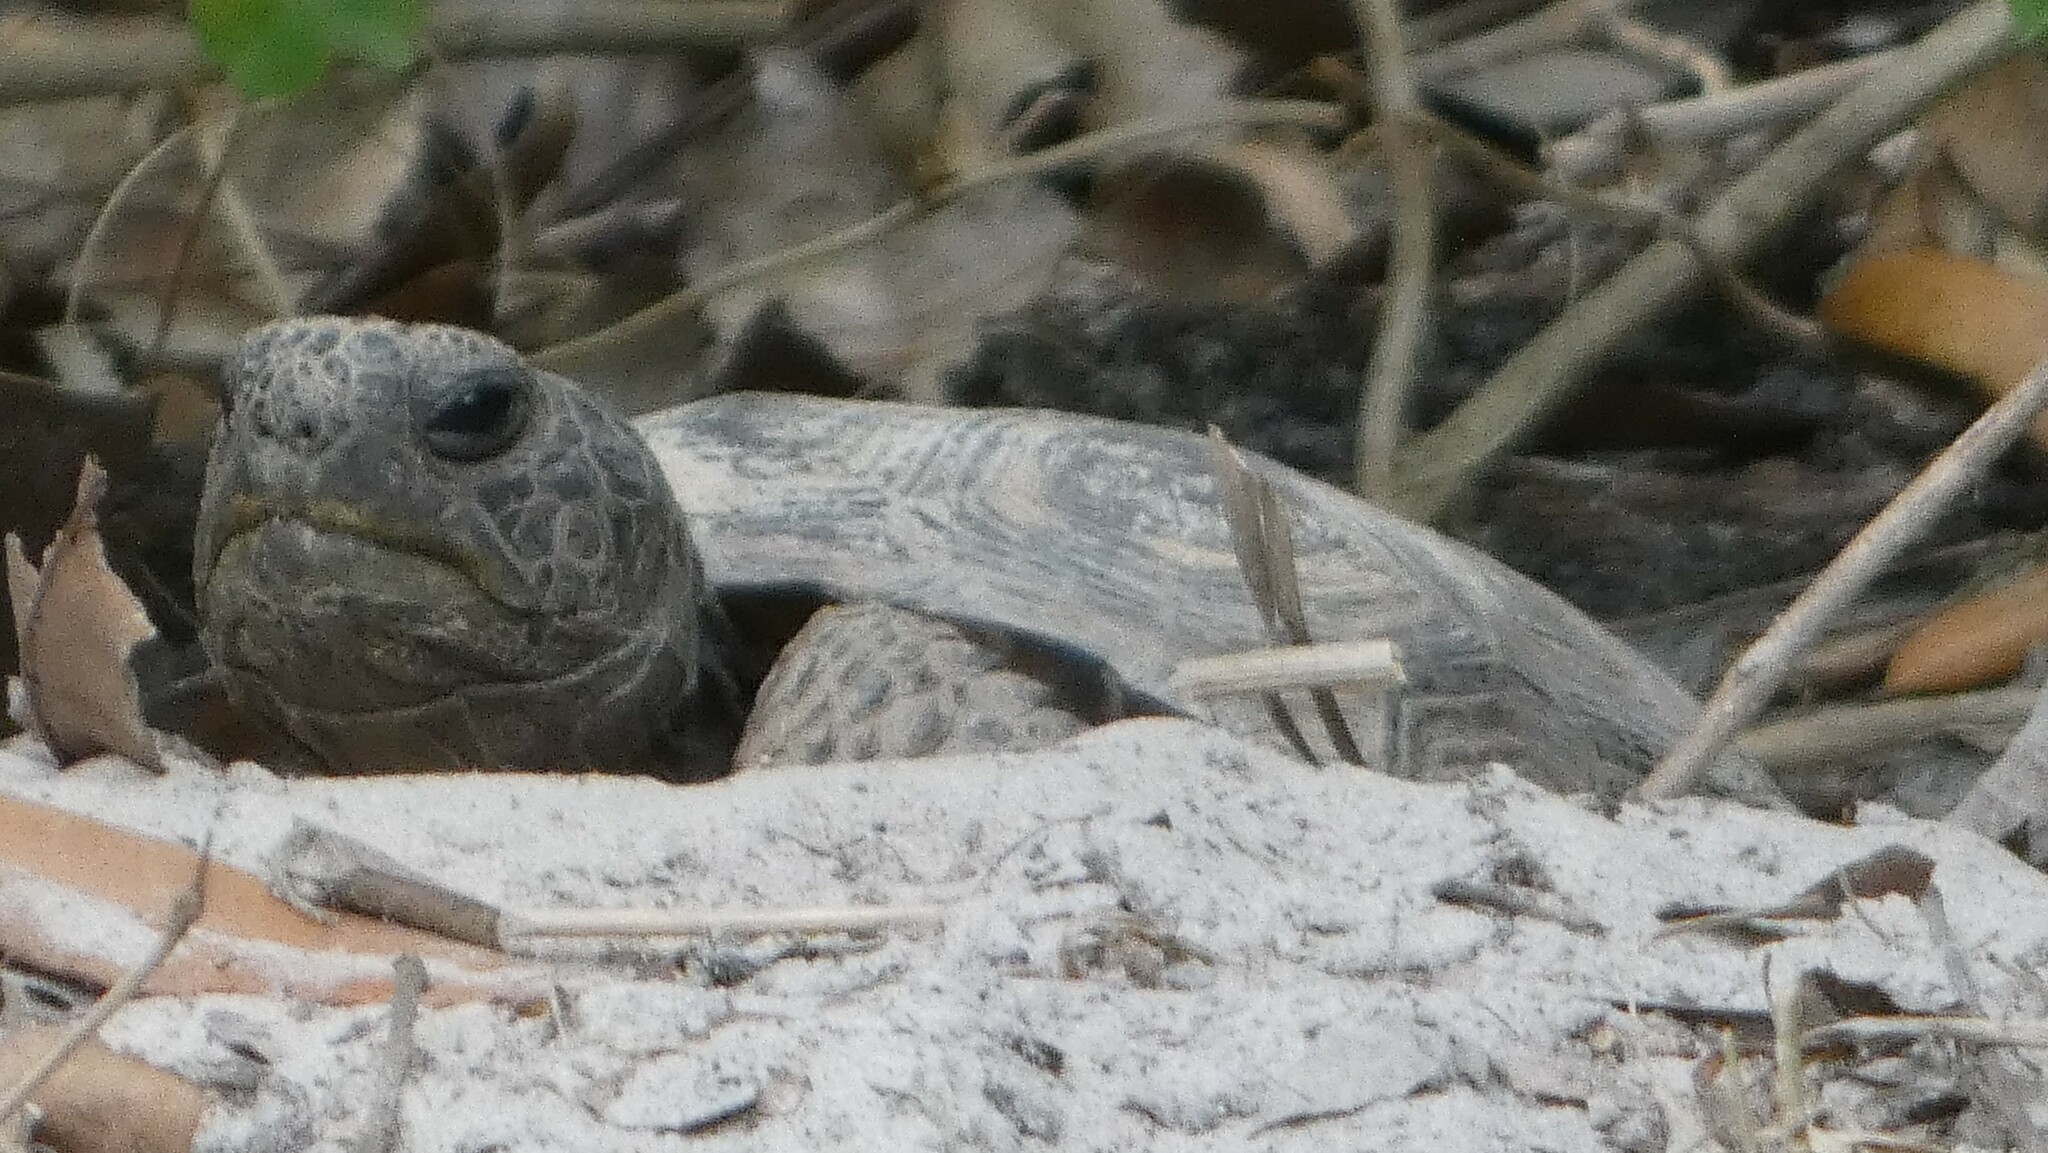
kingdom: Animalia
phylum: Chordata
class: Testudines
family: Testudinidae
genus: Gopherus
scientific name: Gopherus polyphemus
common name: Florida gopher tortoise
